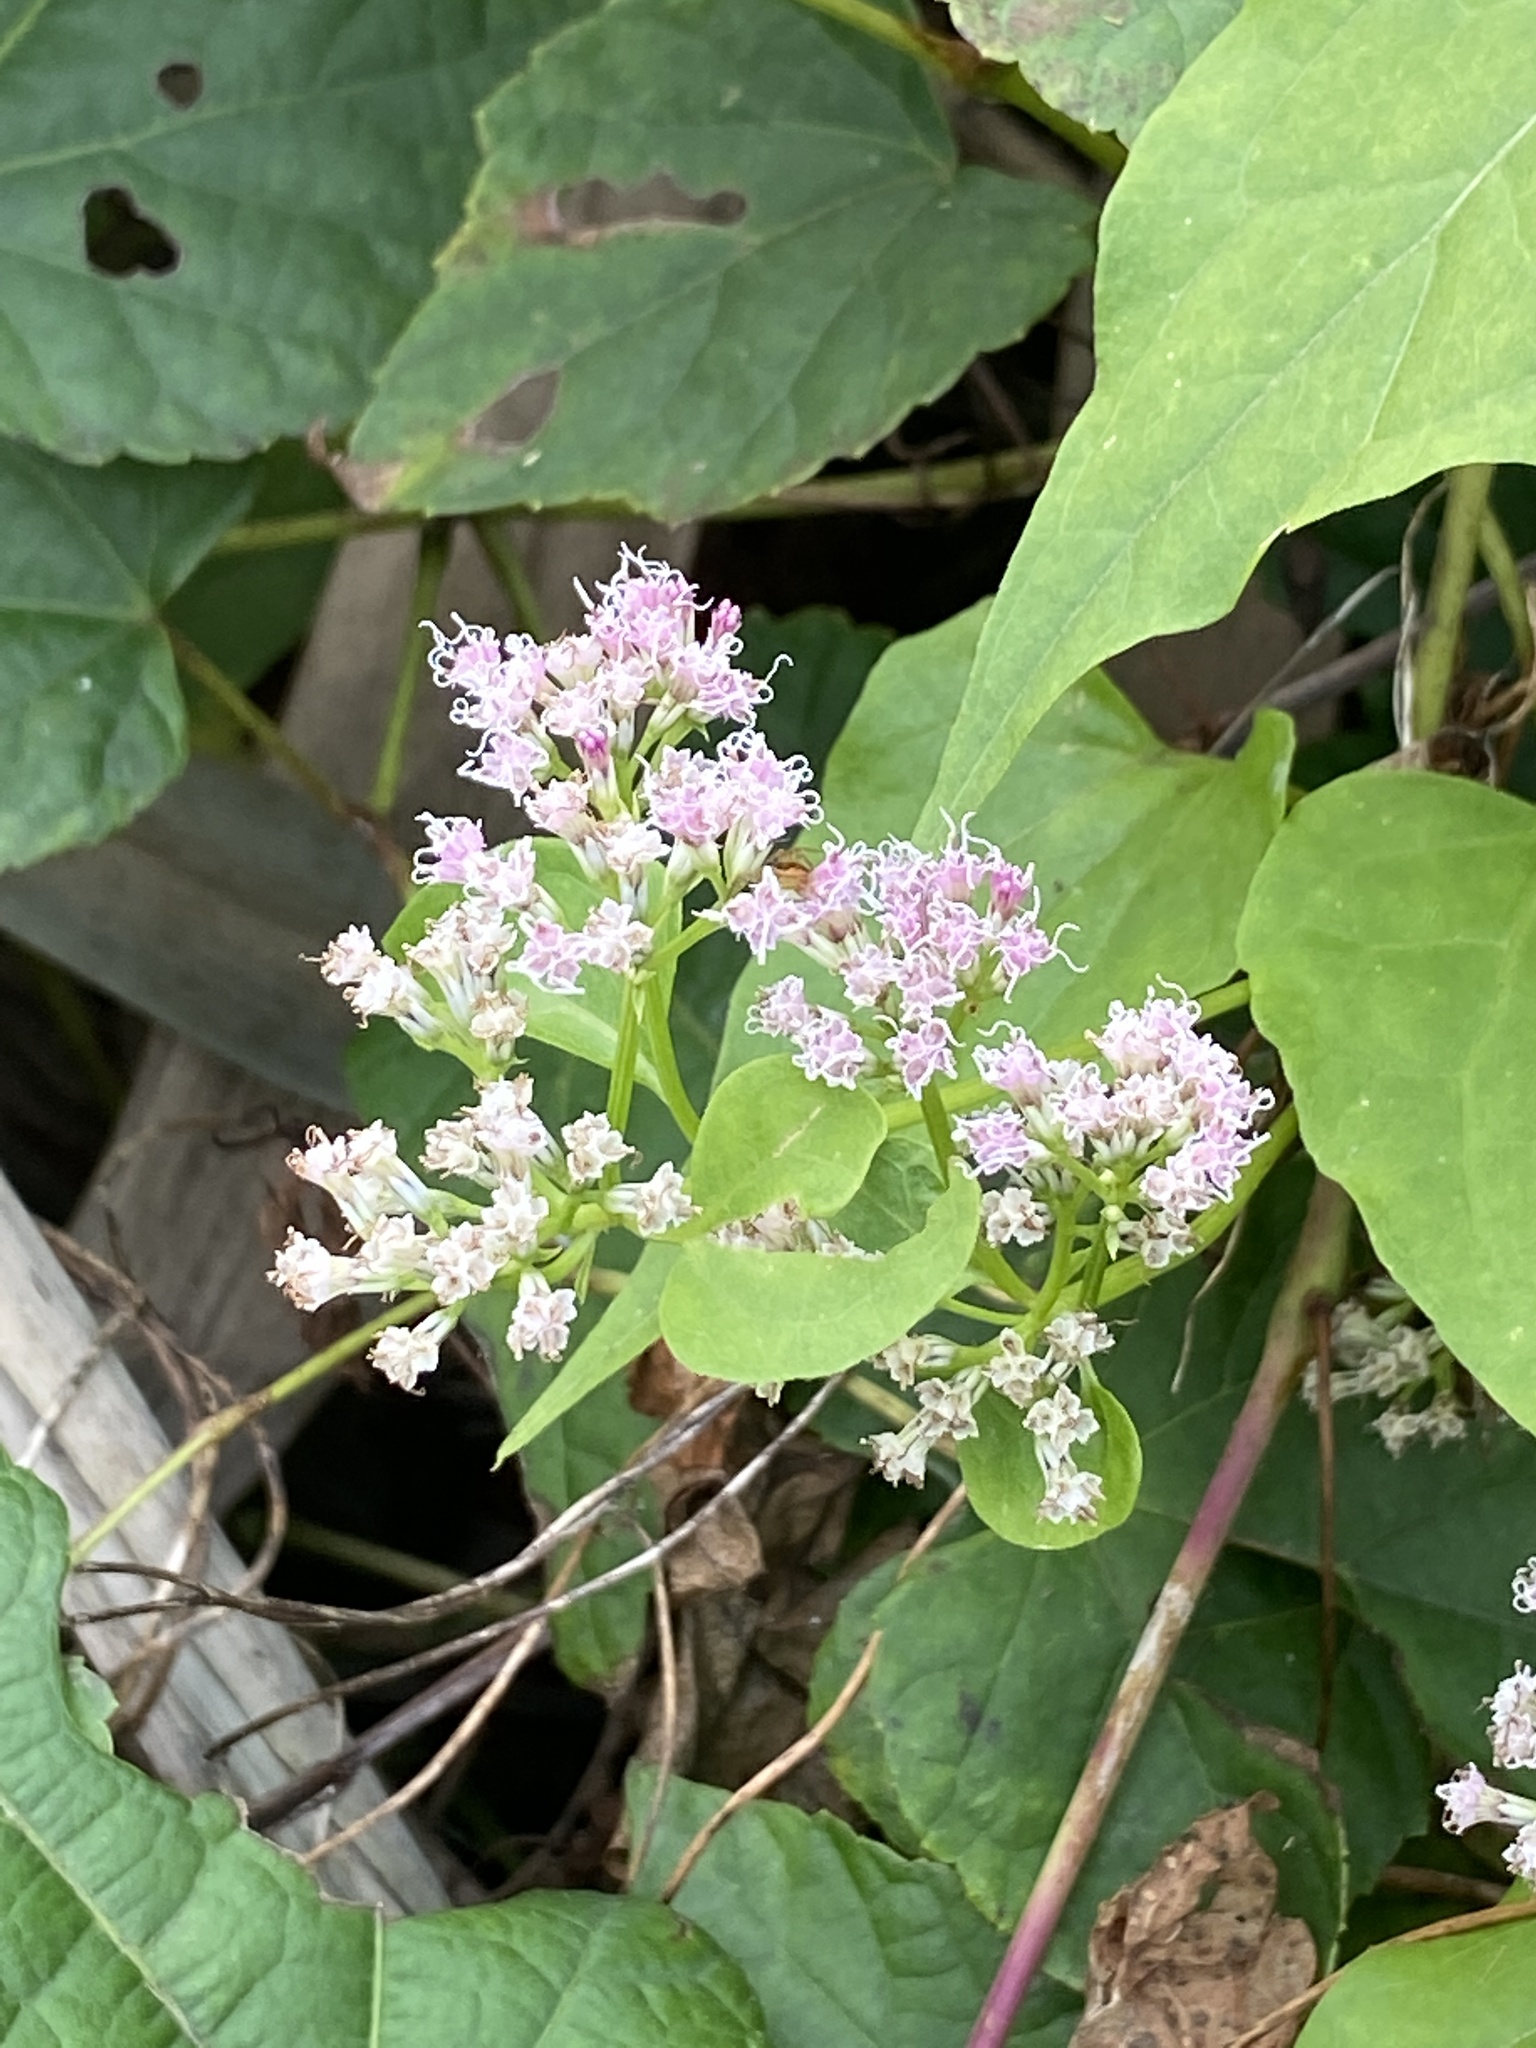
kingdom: Plantae
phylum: Tracheophyta
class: Magnoliopsida
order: Asterales
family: Asteraceae
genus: Mikania
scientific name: Mikania scandens
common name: Climbing hempvine
